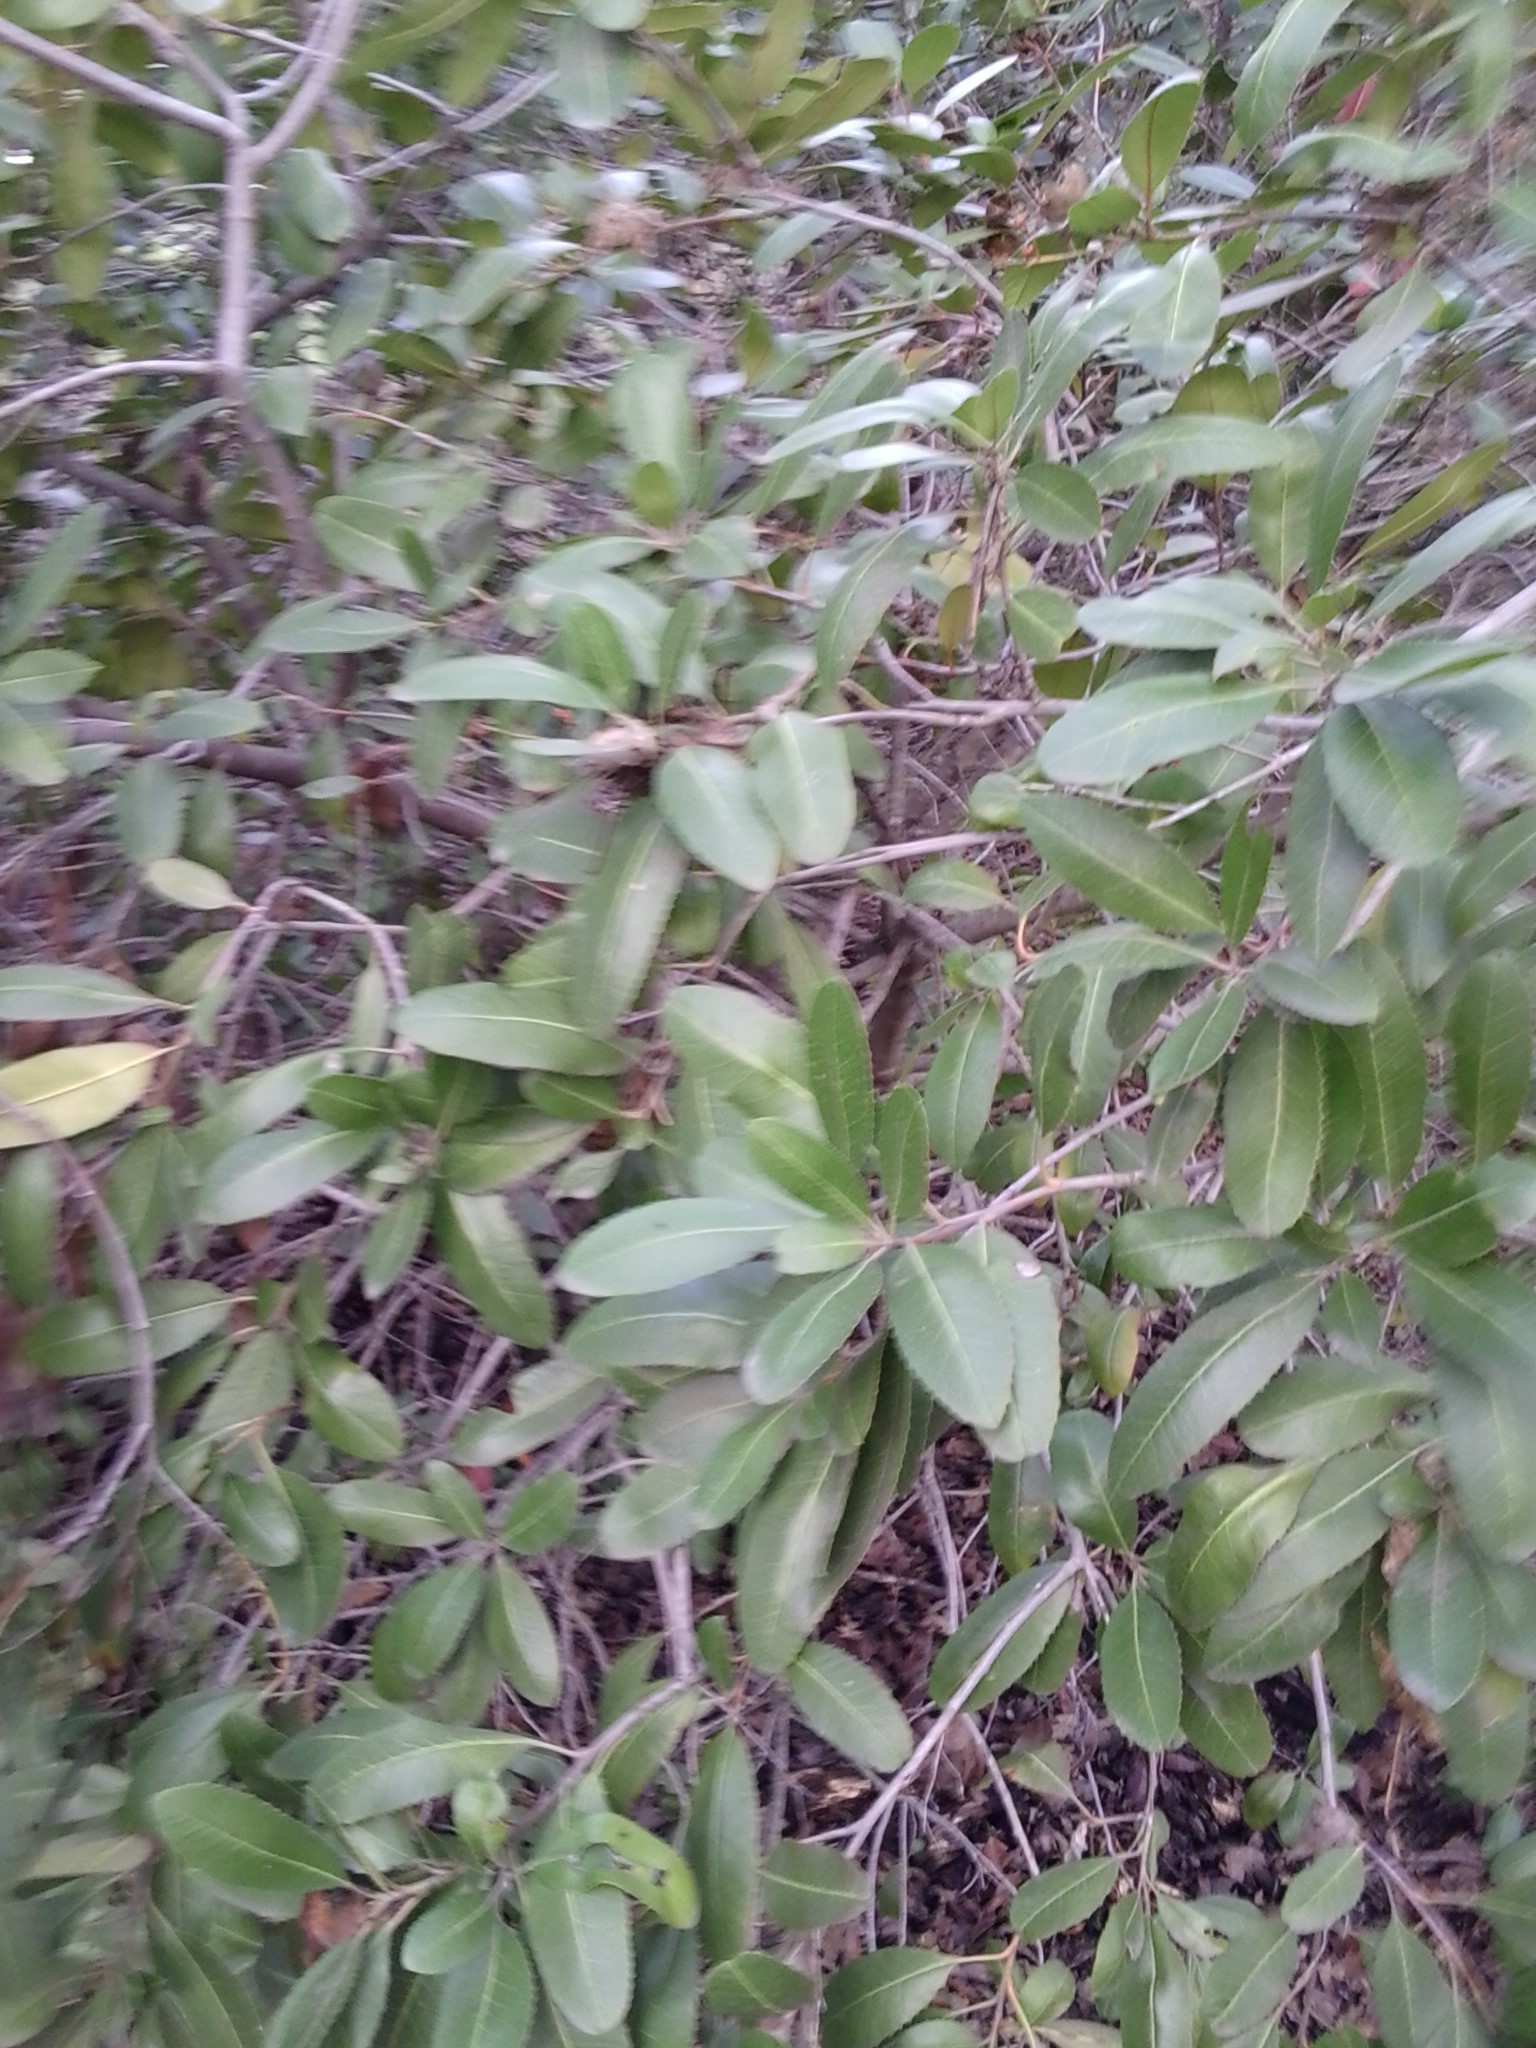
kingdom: Plantae
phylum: Tracheophyta
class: Magnoliopsida
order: Rosales
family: Rosaceae
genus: Heteromeles
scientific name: Heteromeles arbutifolia
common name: California-holly
